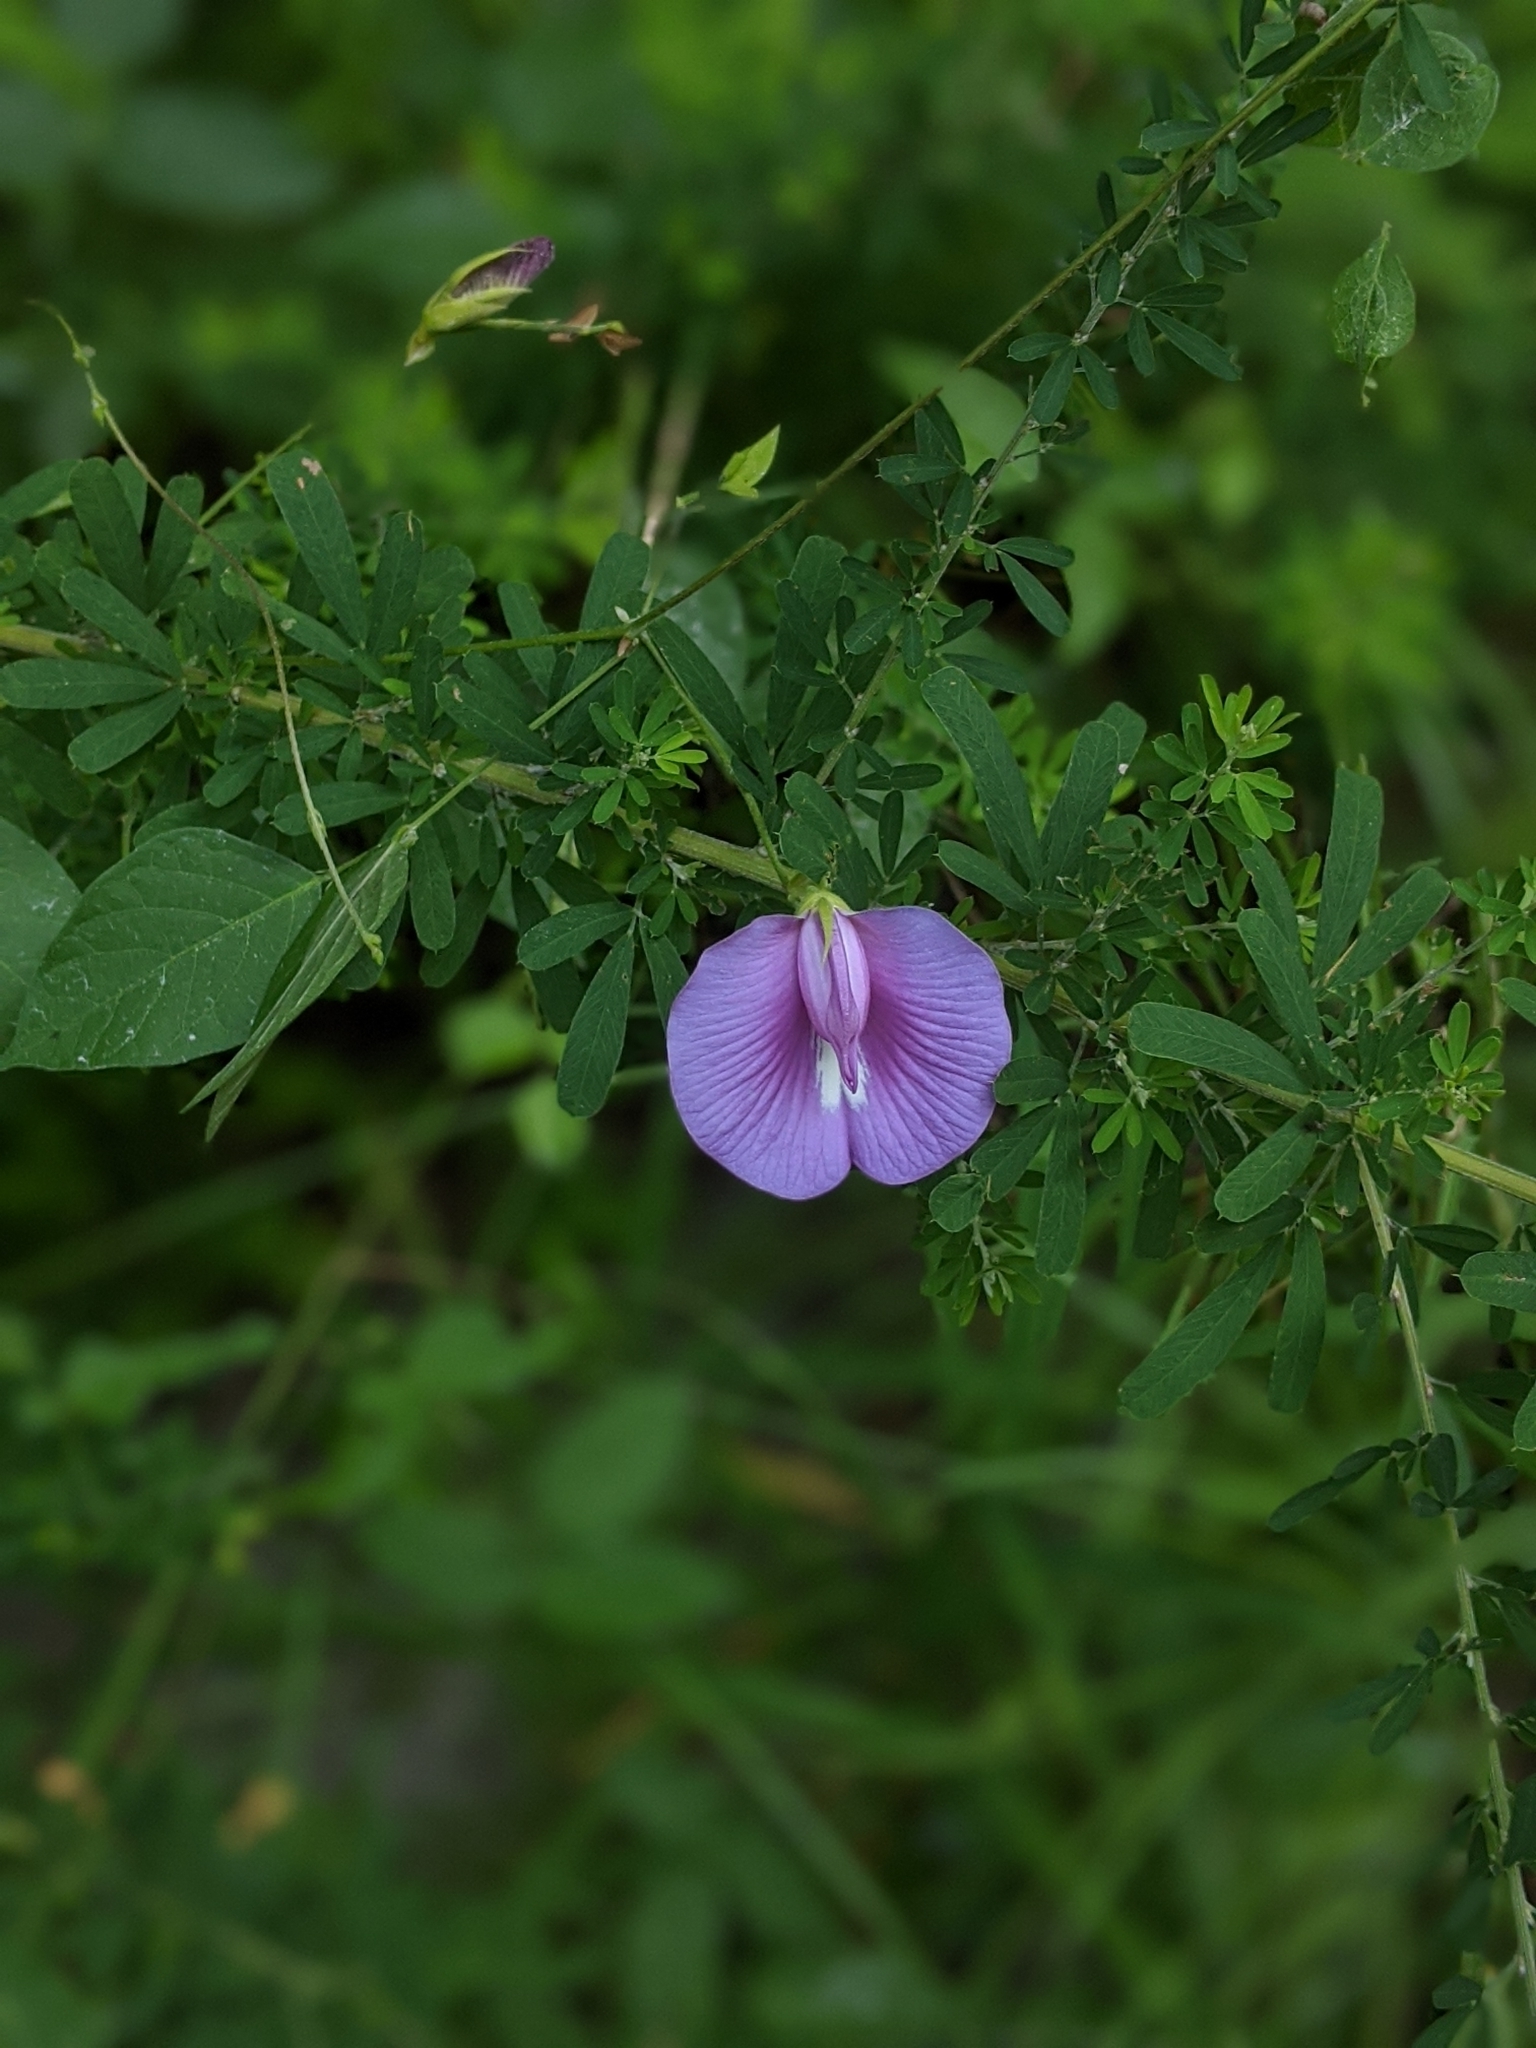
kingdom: Plantae
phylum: Tracheophyta
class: Magnoliopsida
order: Fabales
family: Fabaceae
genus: Centrosema
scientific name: Centrosema virginianum
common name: Butterfly-pea
